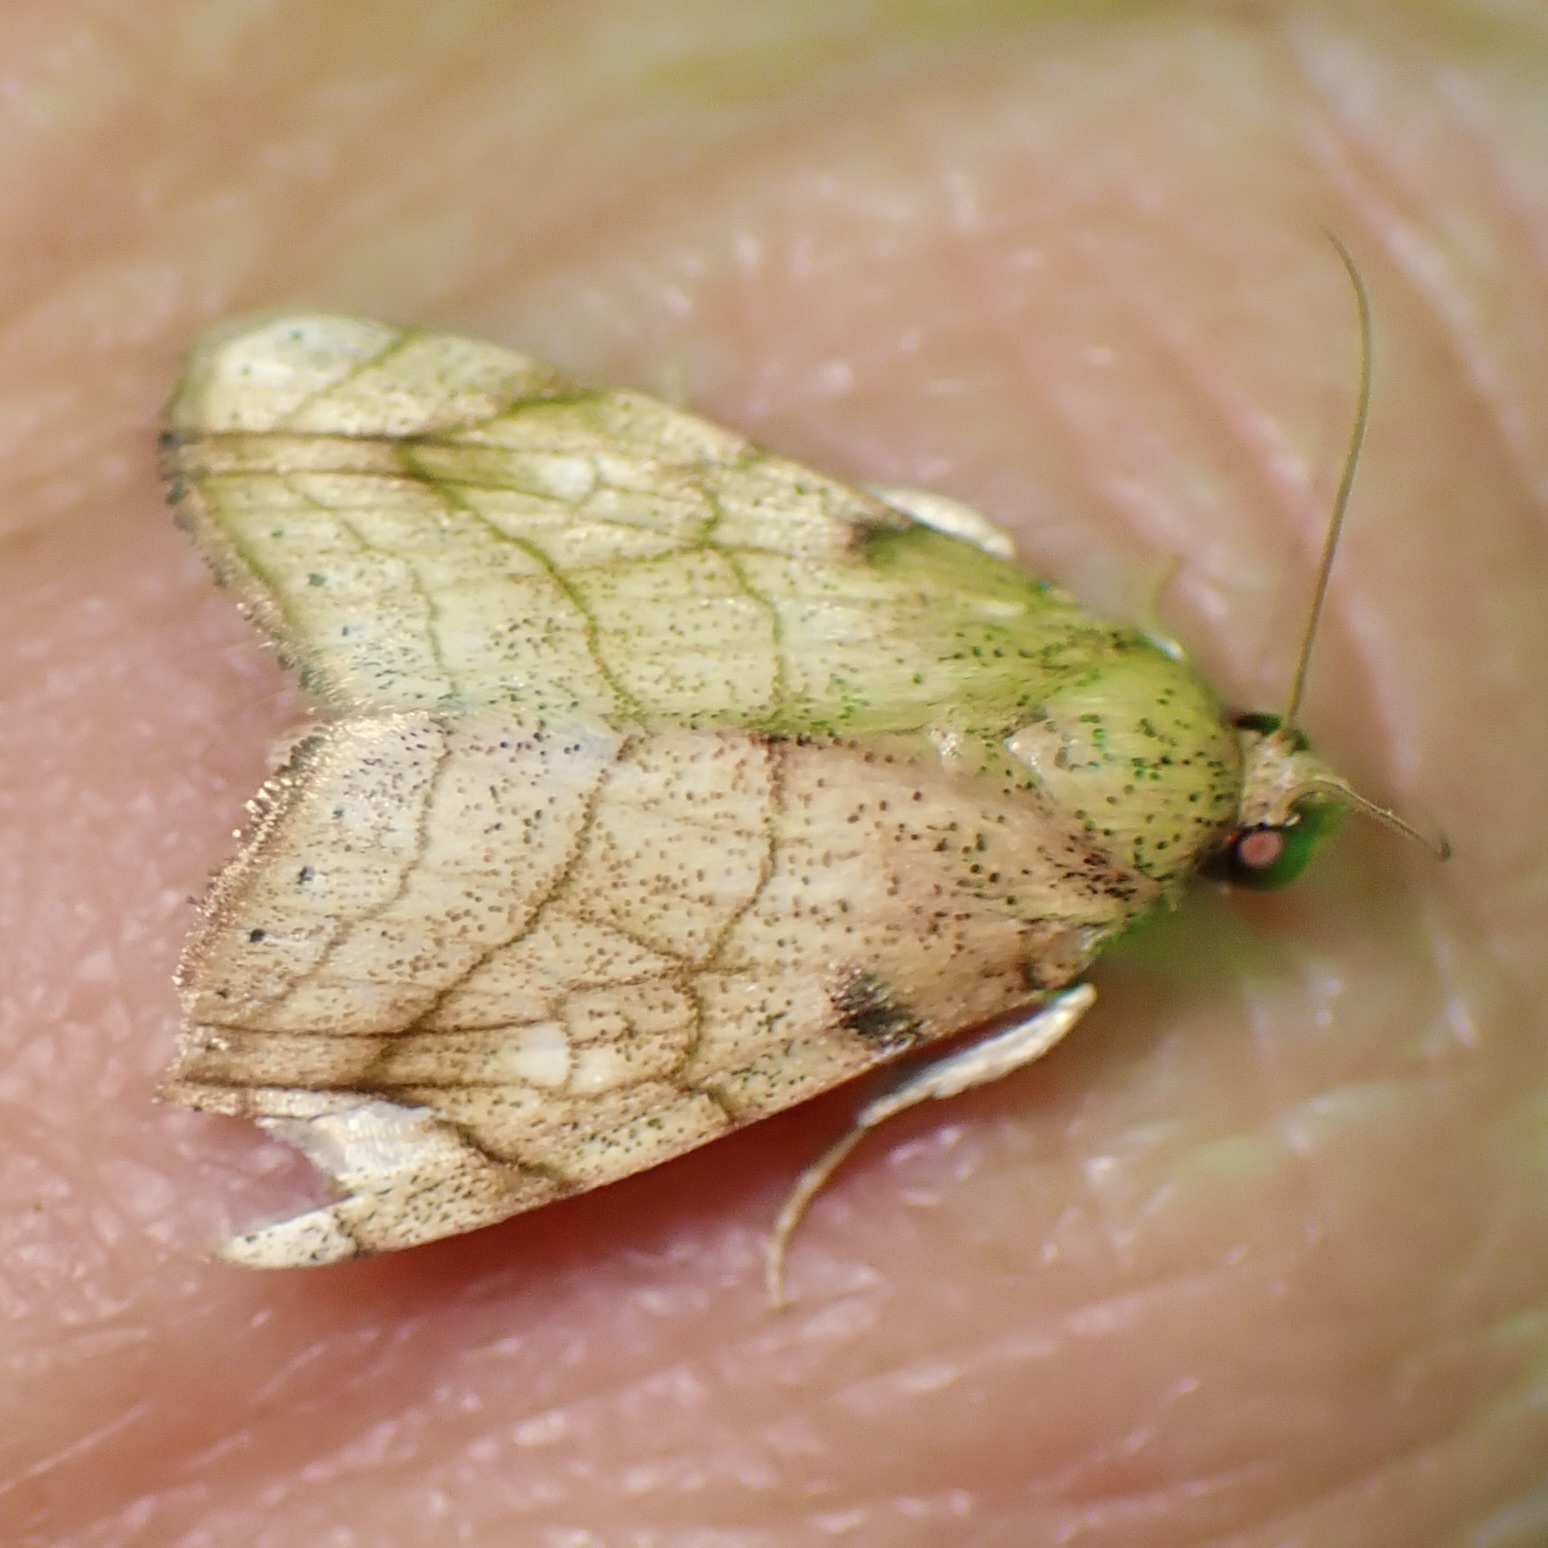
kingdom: Animalia
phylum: Arthropoda
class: Insecta
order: Lepidoptera
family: Noctuidae
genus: Bagisara
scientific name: Bagisara tristicta
